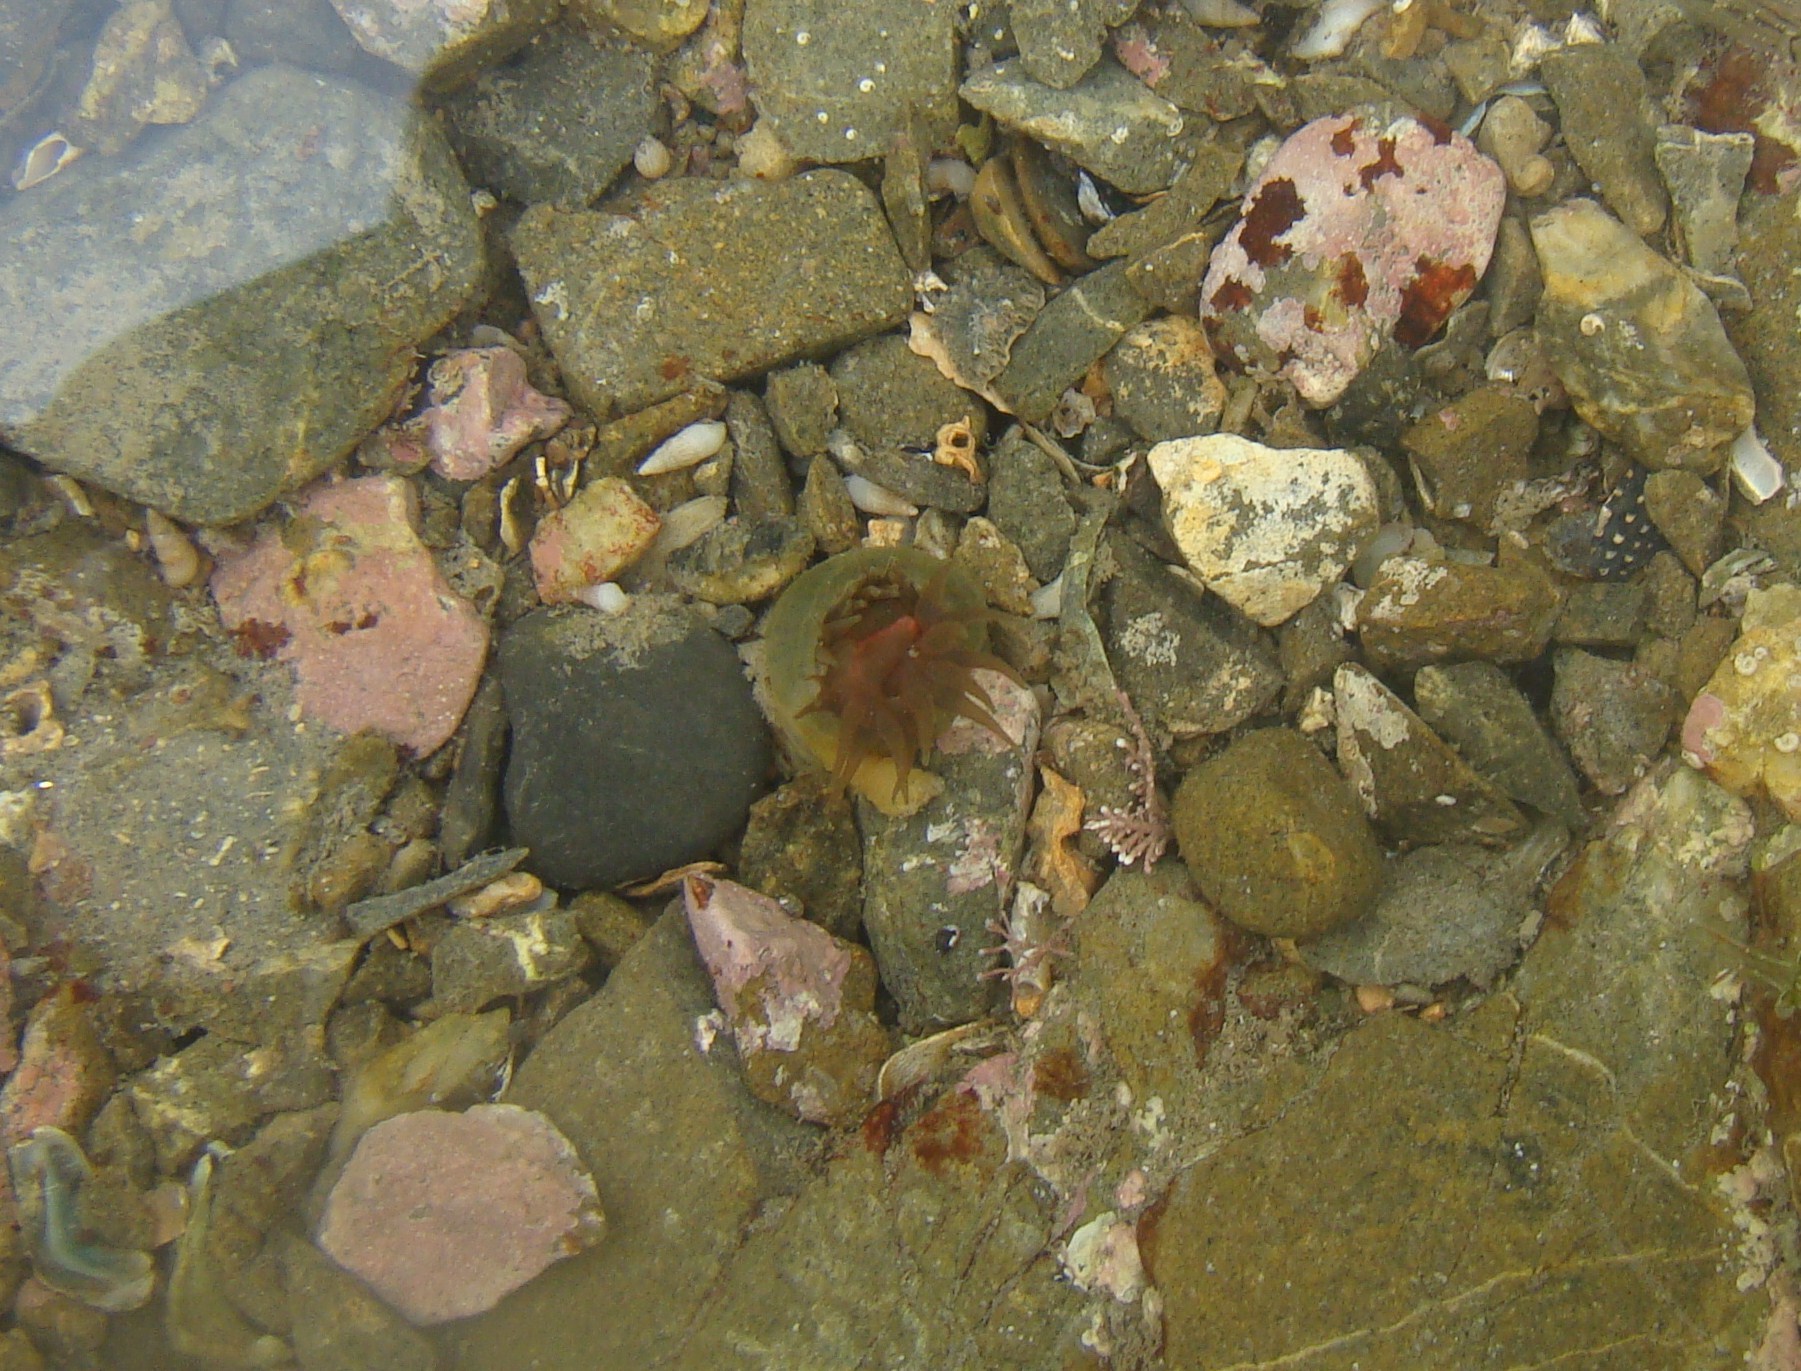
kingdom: Animalia
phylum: Cnidaria
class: Anthozoa
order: Actiniaria
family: Actiniidae
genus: Isactinia
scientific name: Isactinia olivacea
